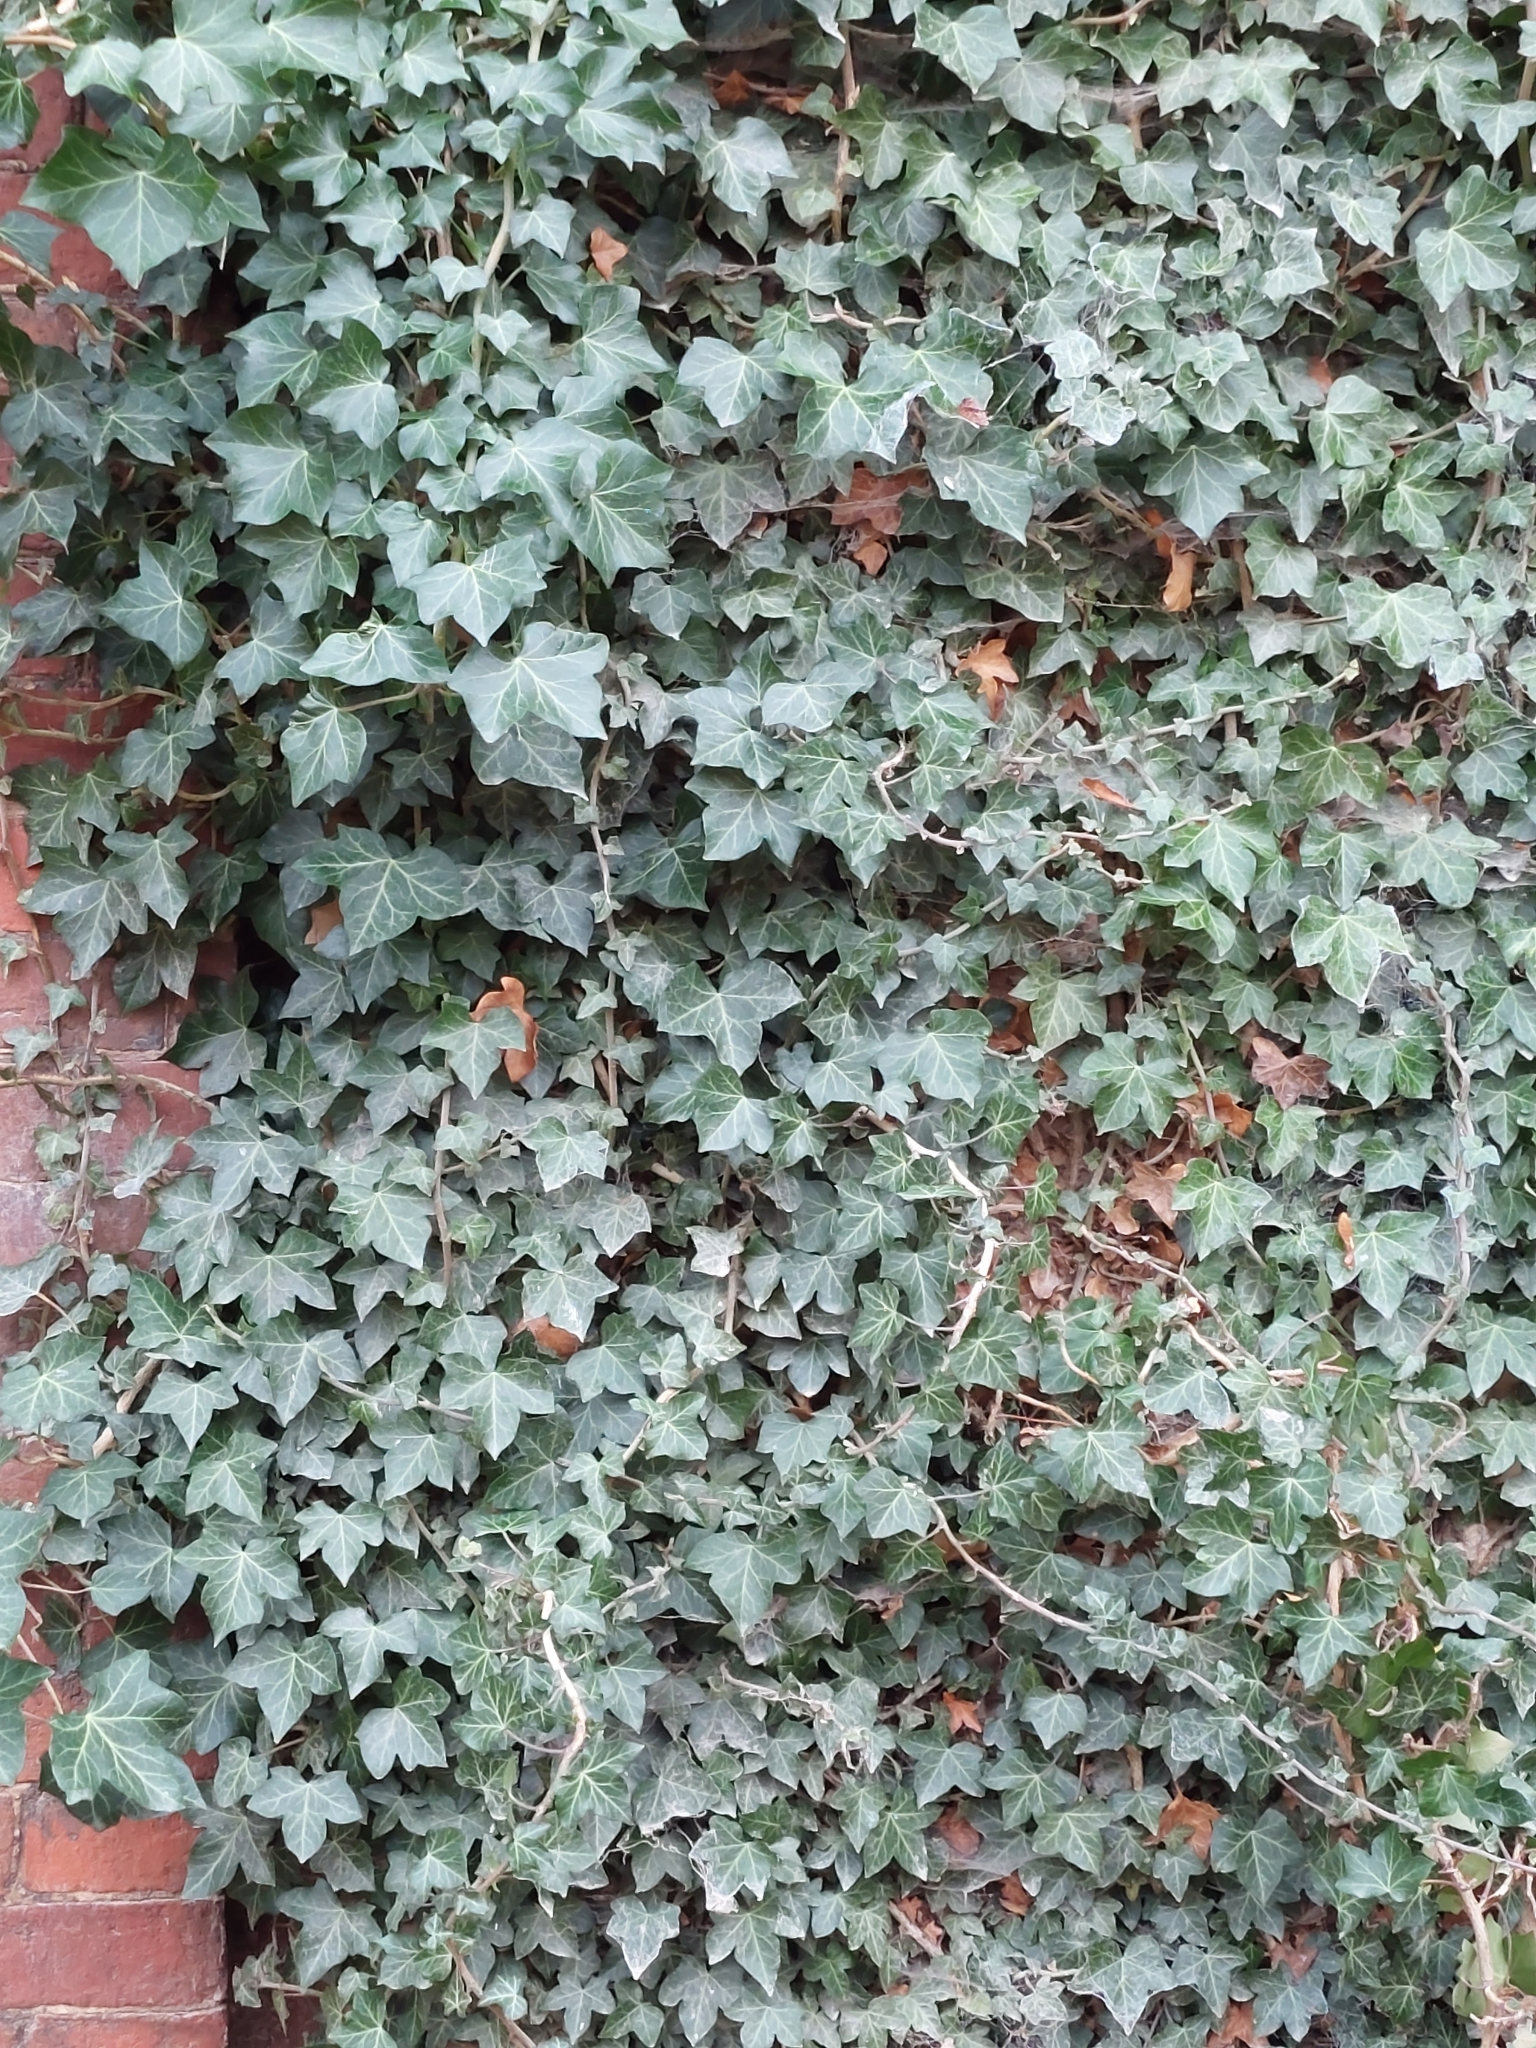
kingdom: Plantae
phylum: Tracheophyta
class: Magnoliopsida
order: Apiales
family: Araliaceae
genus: Hedera
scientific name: Hedera helix
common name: Ivy
